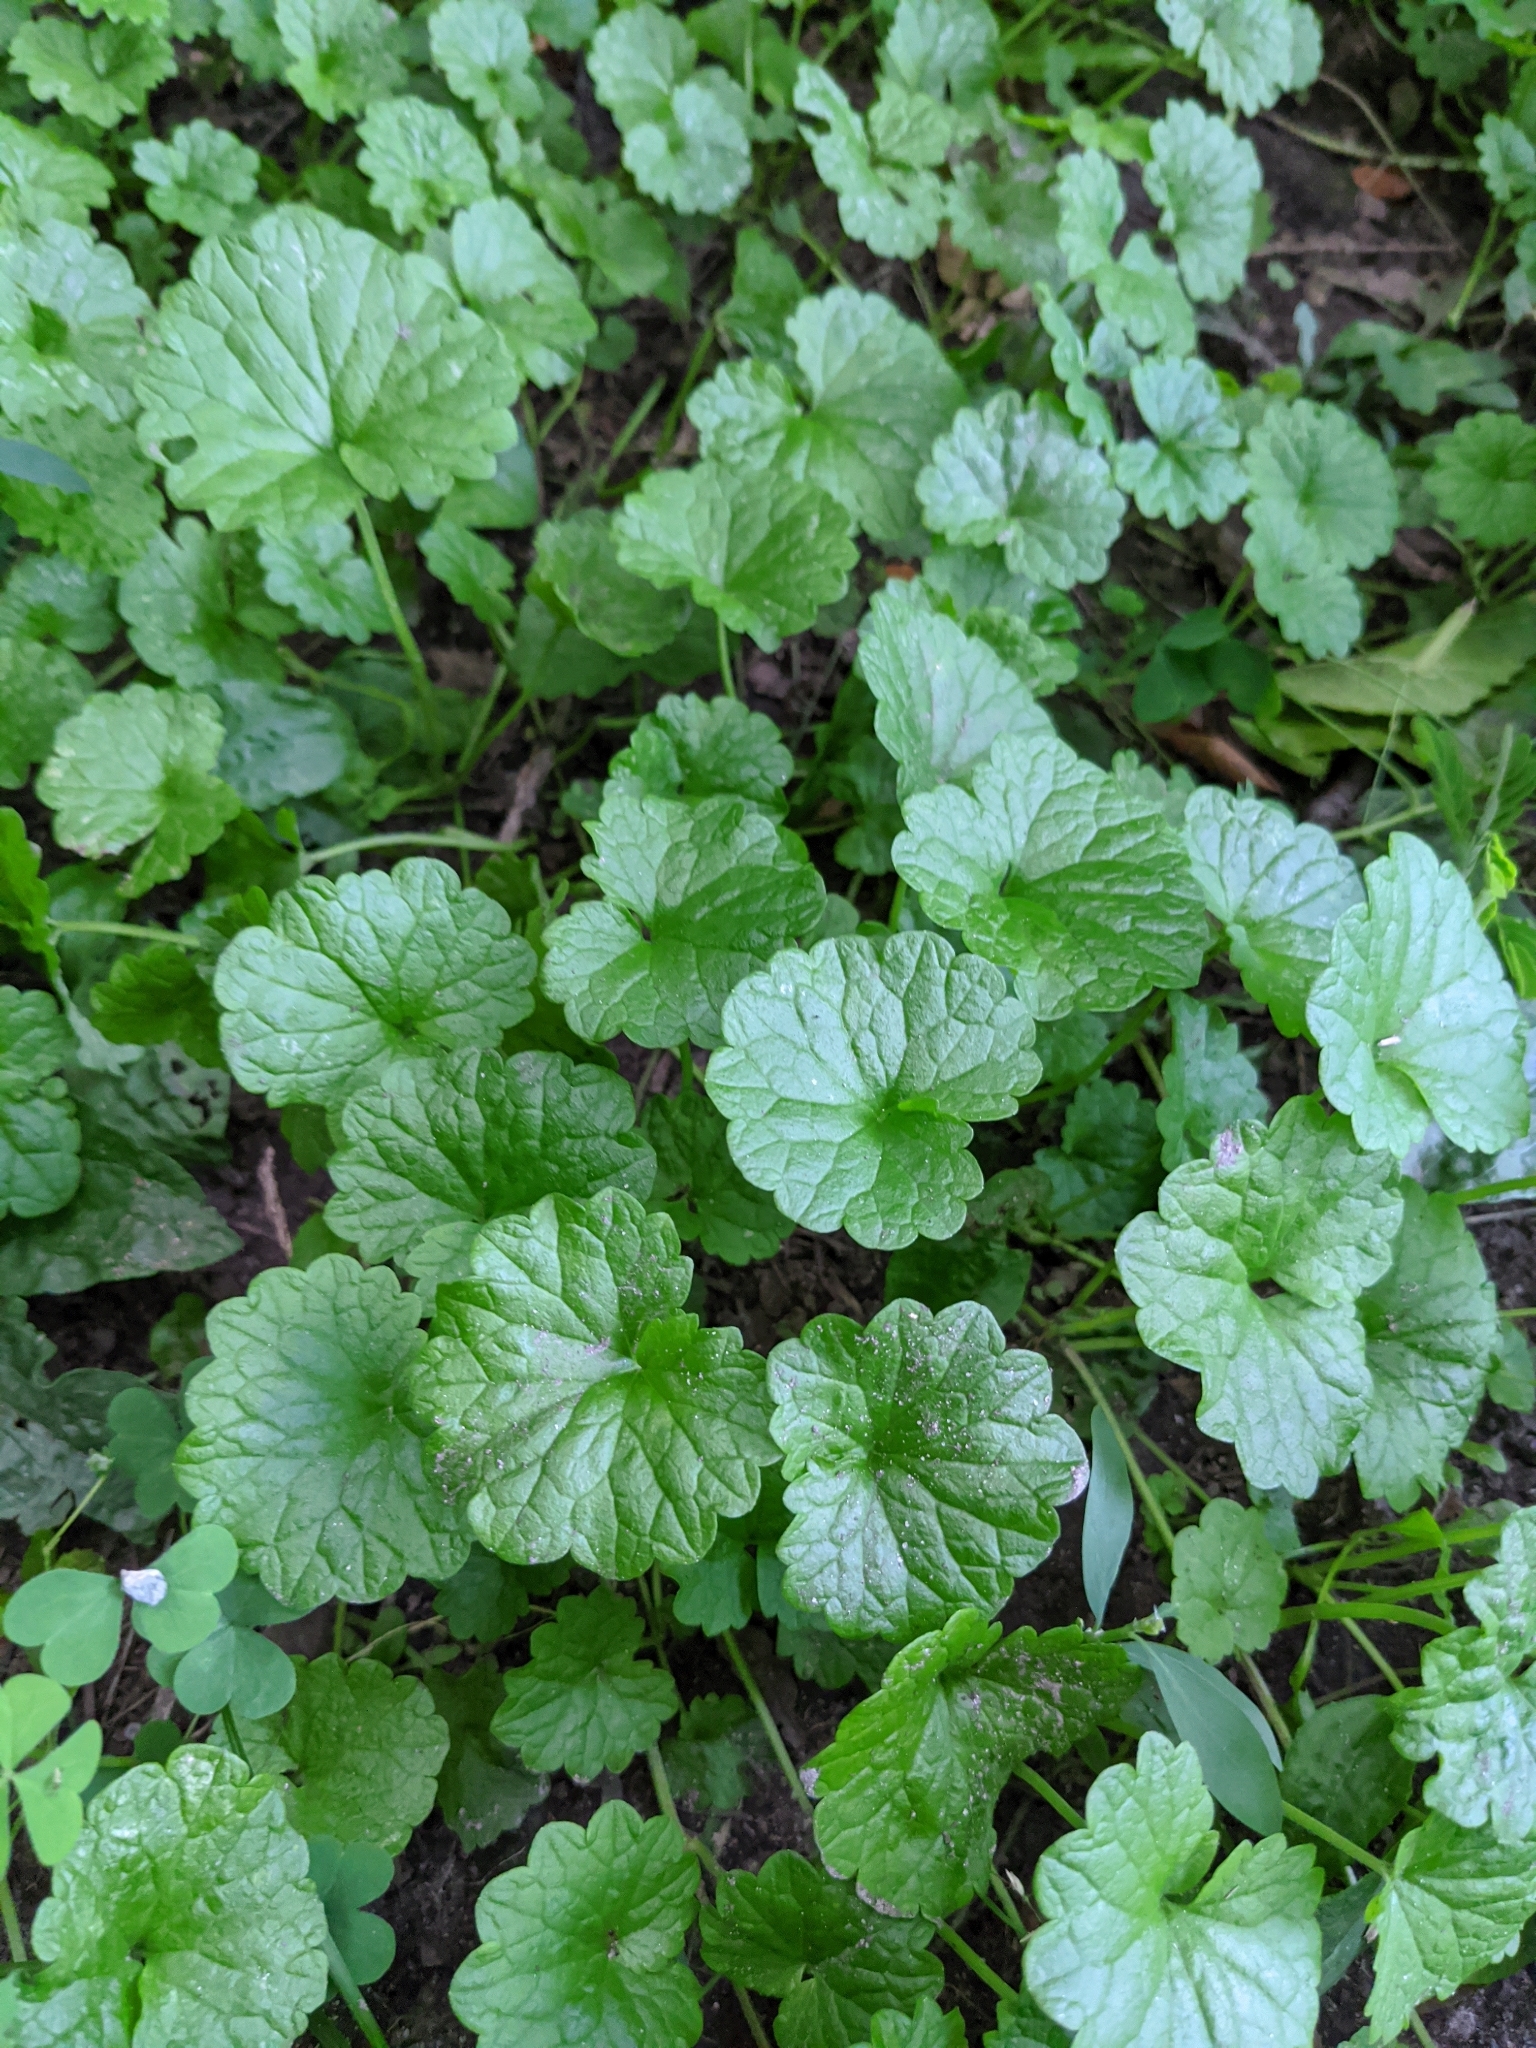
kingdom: Plantae
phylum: Tracheophyta
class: Magnoliopsida
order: Lamiales
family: Lamiaceae
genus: Glechoma
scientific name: Glechoma hederacea
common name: Ground ivy
